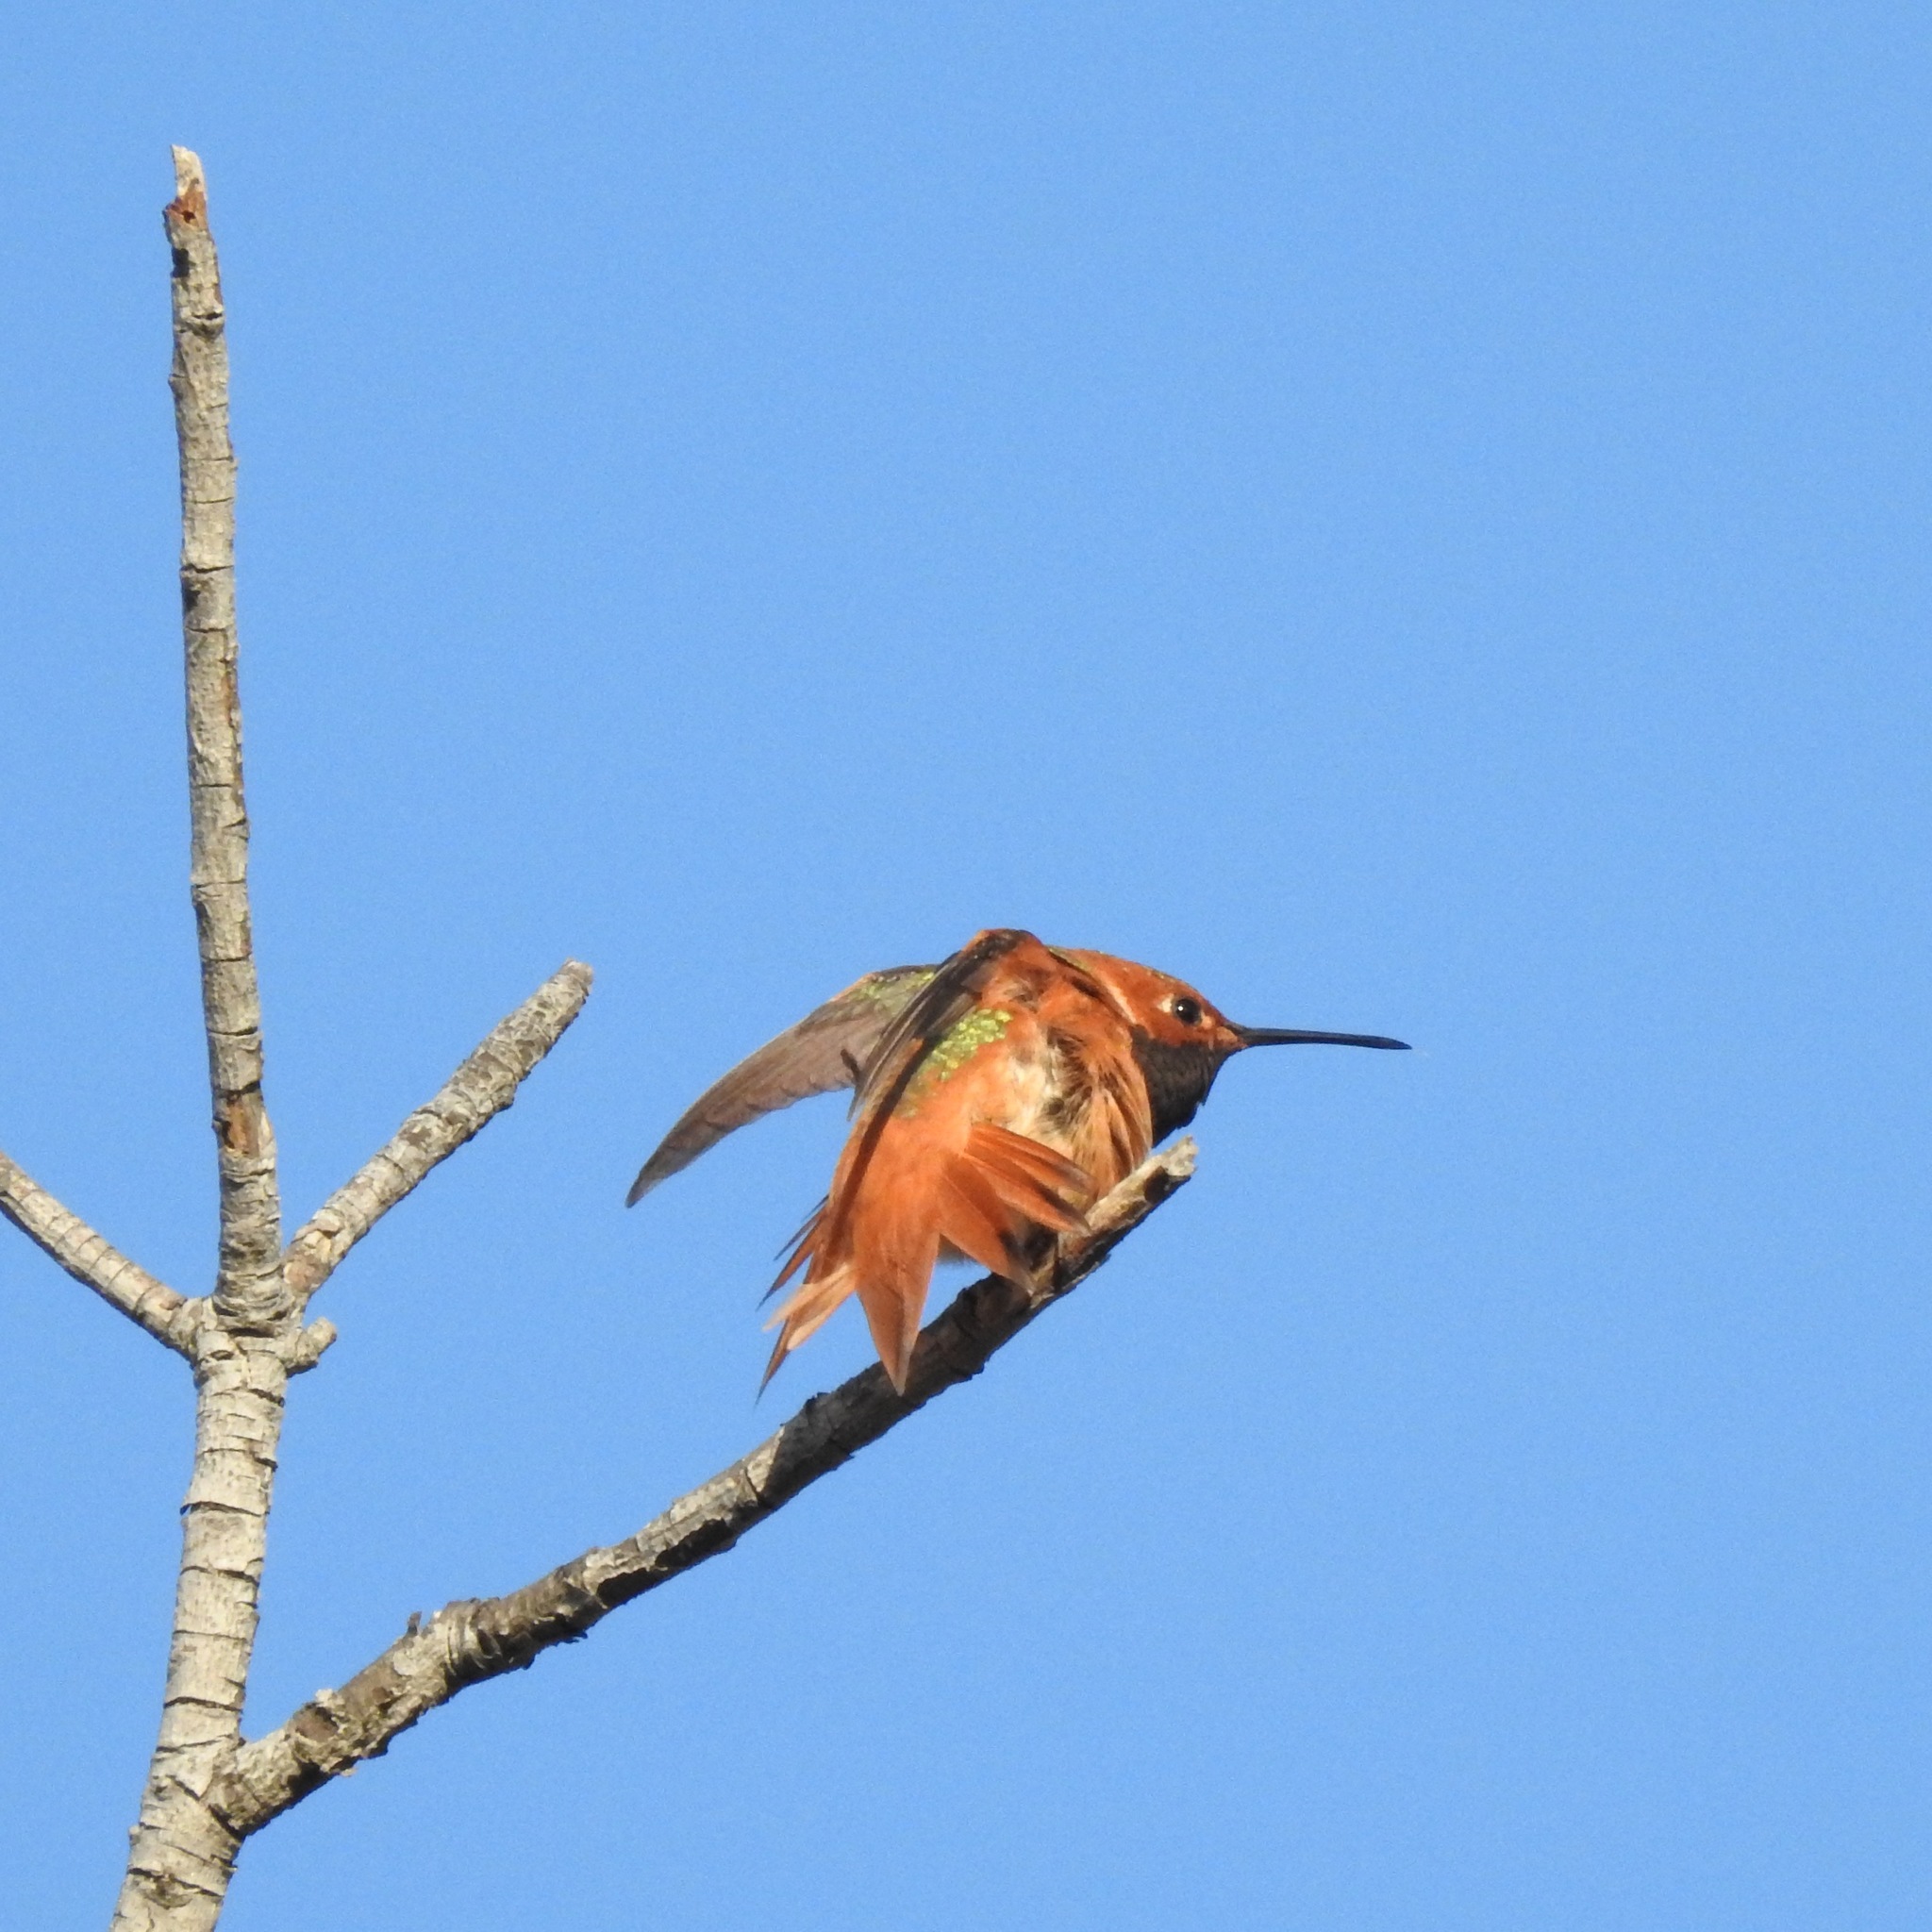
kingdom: Animalia
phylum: Chordata
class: Aves
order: Apodiformes
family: Trochilidae
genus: Selasphorus
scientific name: Selasphorus sasin
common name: Allen's hummingbird
